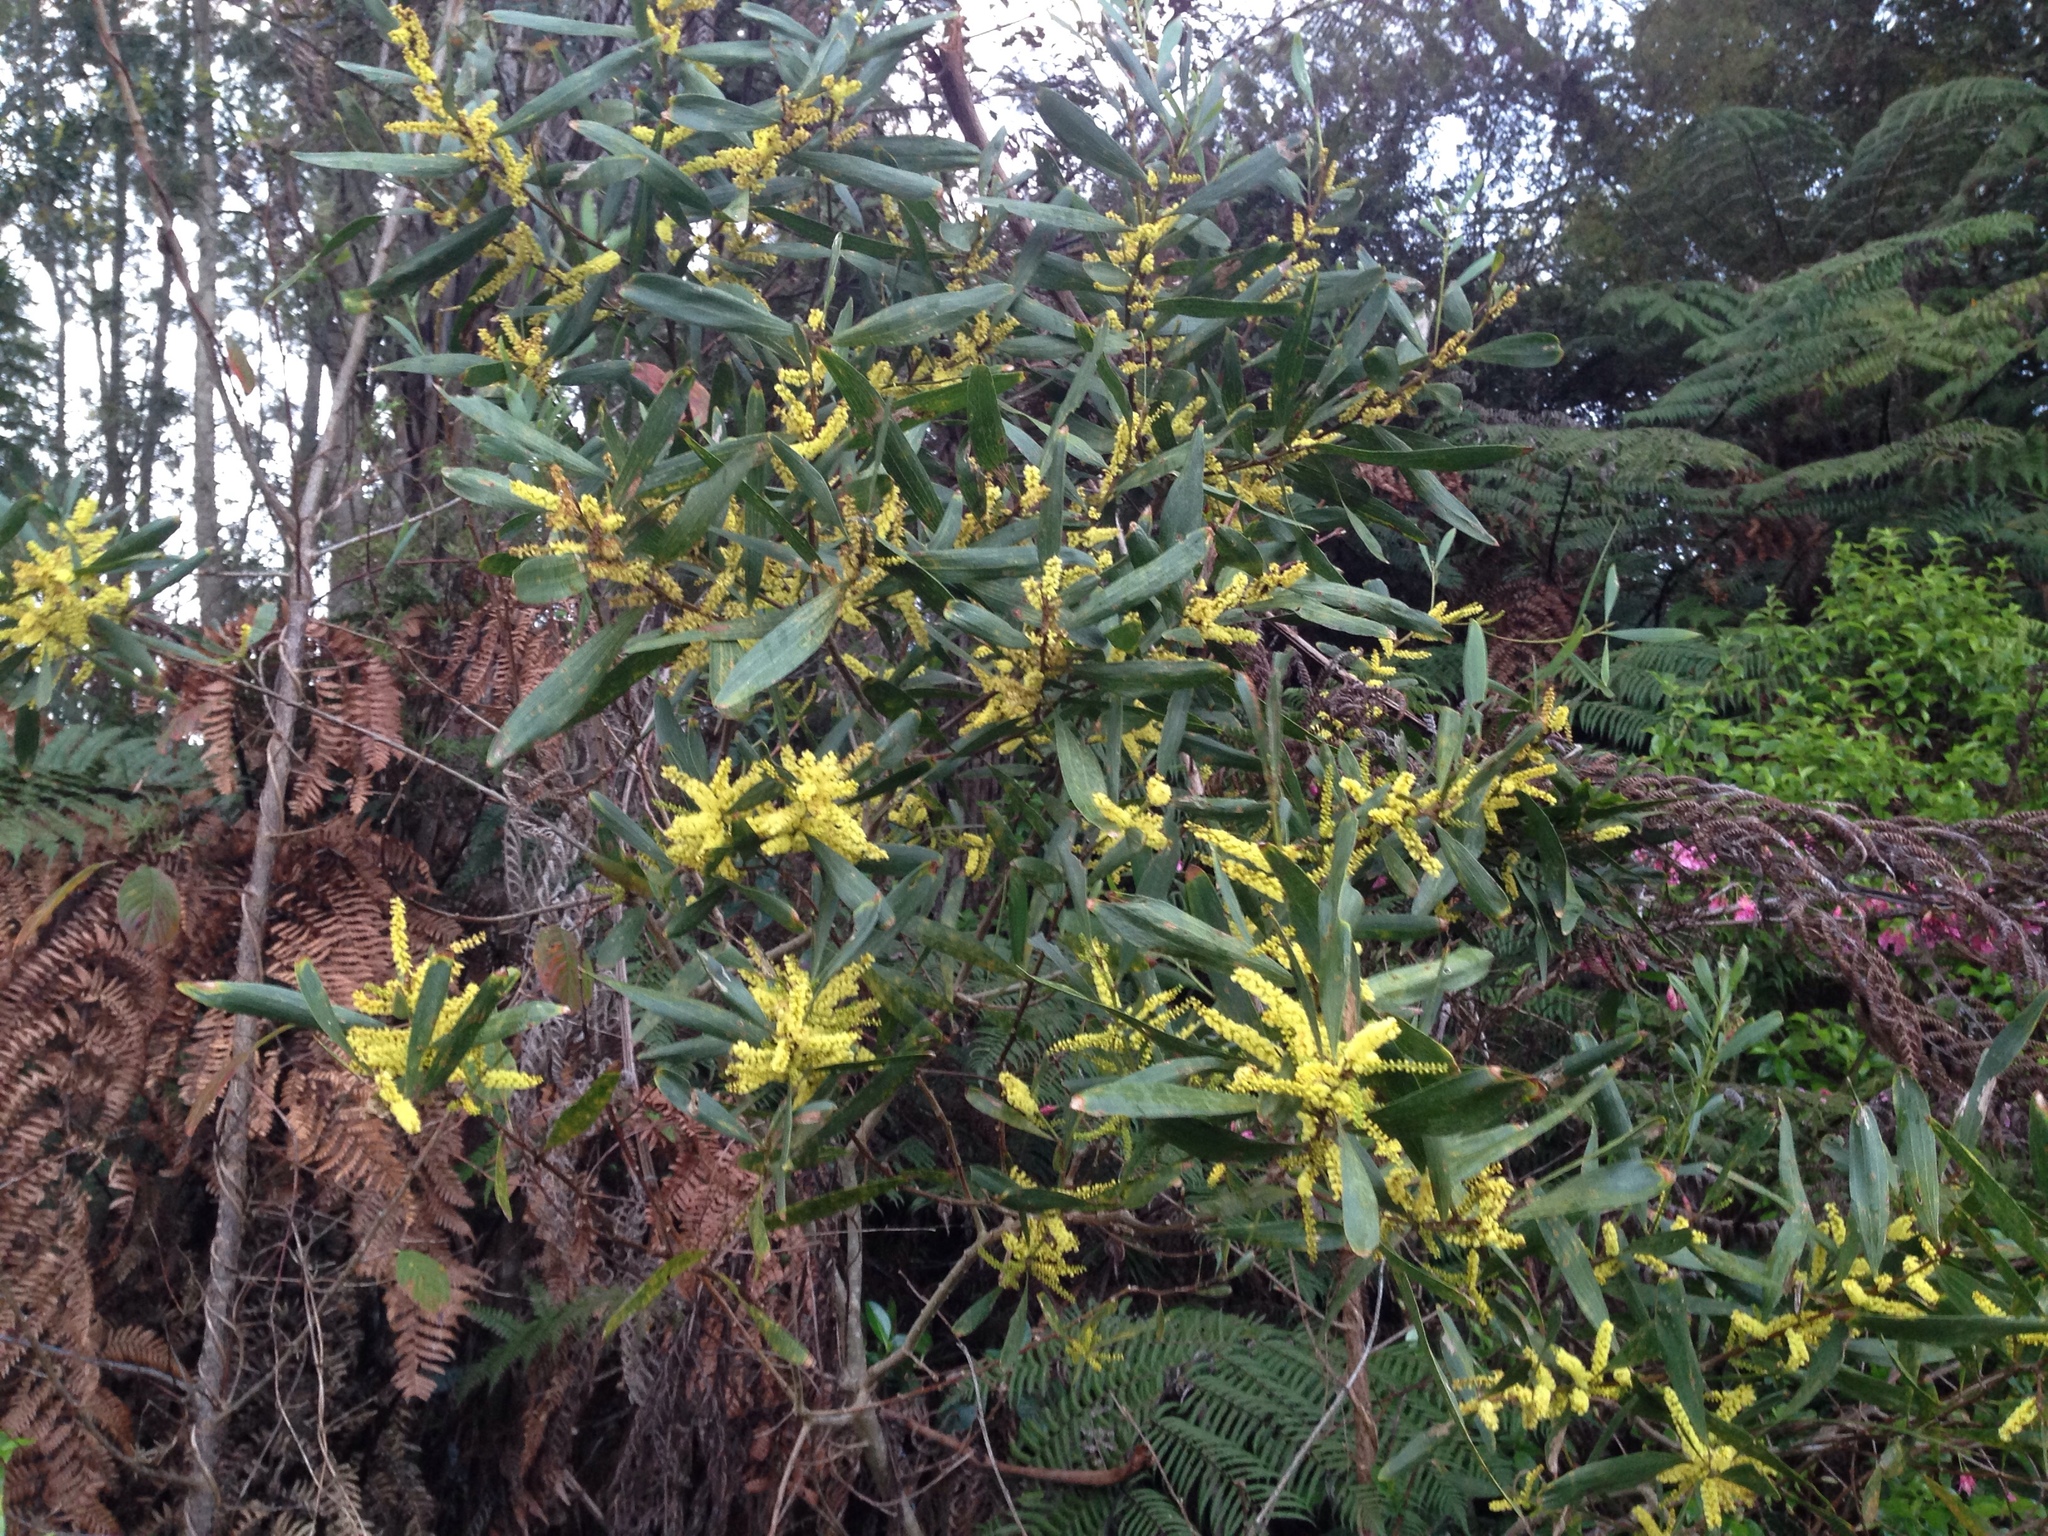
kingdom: Plantae
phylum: Tracheophyta
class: Magnoliopsida
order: Fabales
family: Fabaceae
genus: Acacia
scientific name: Acacia longifolia
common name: Sydney golden wattle
